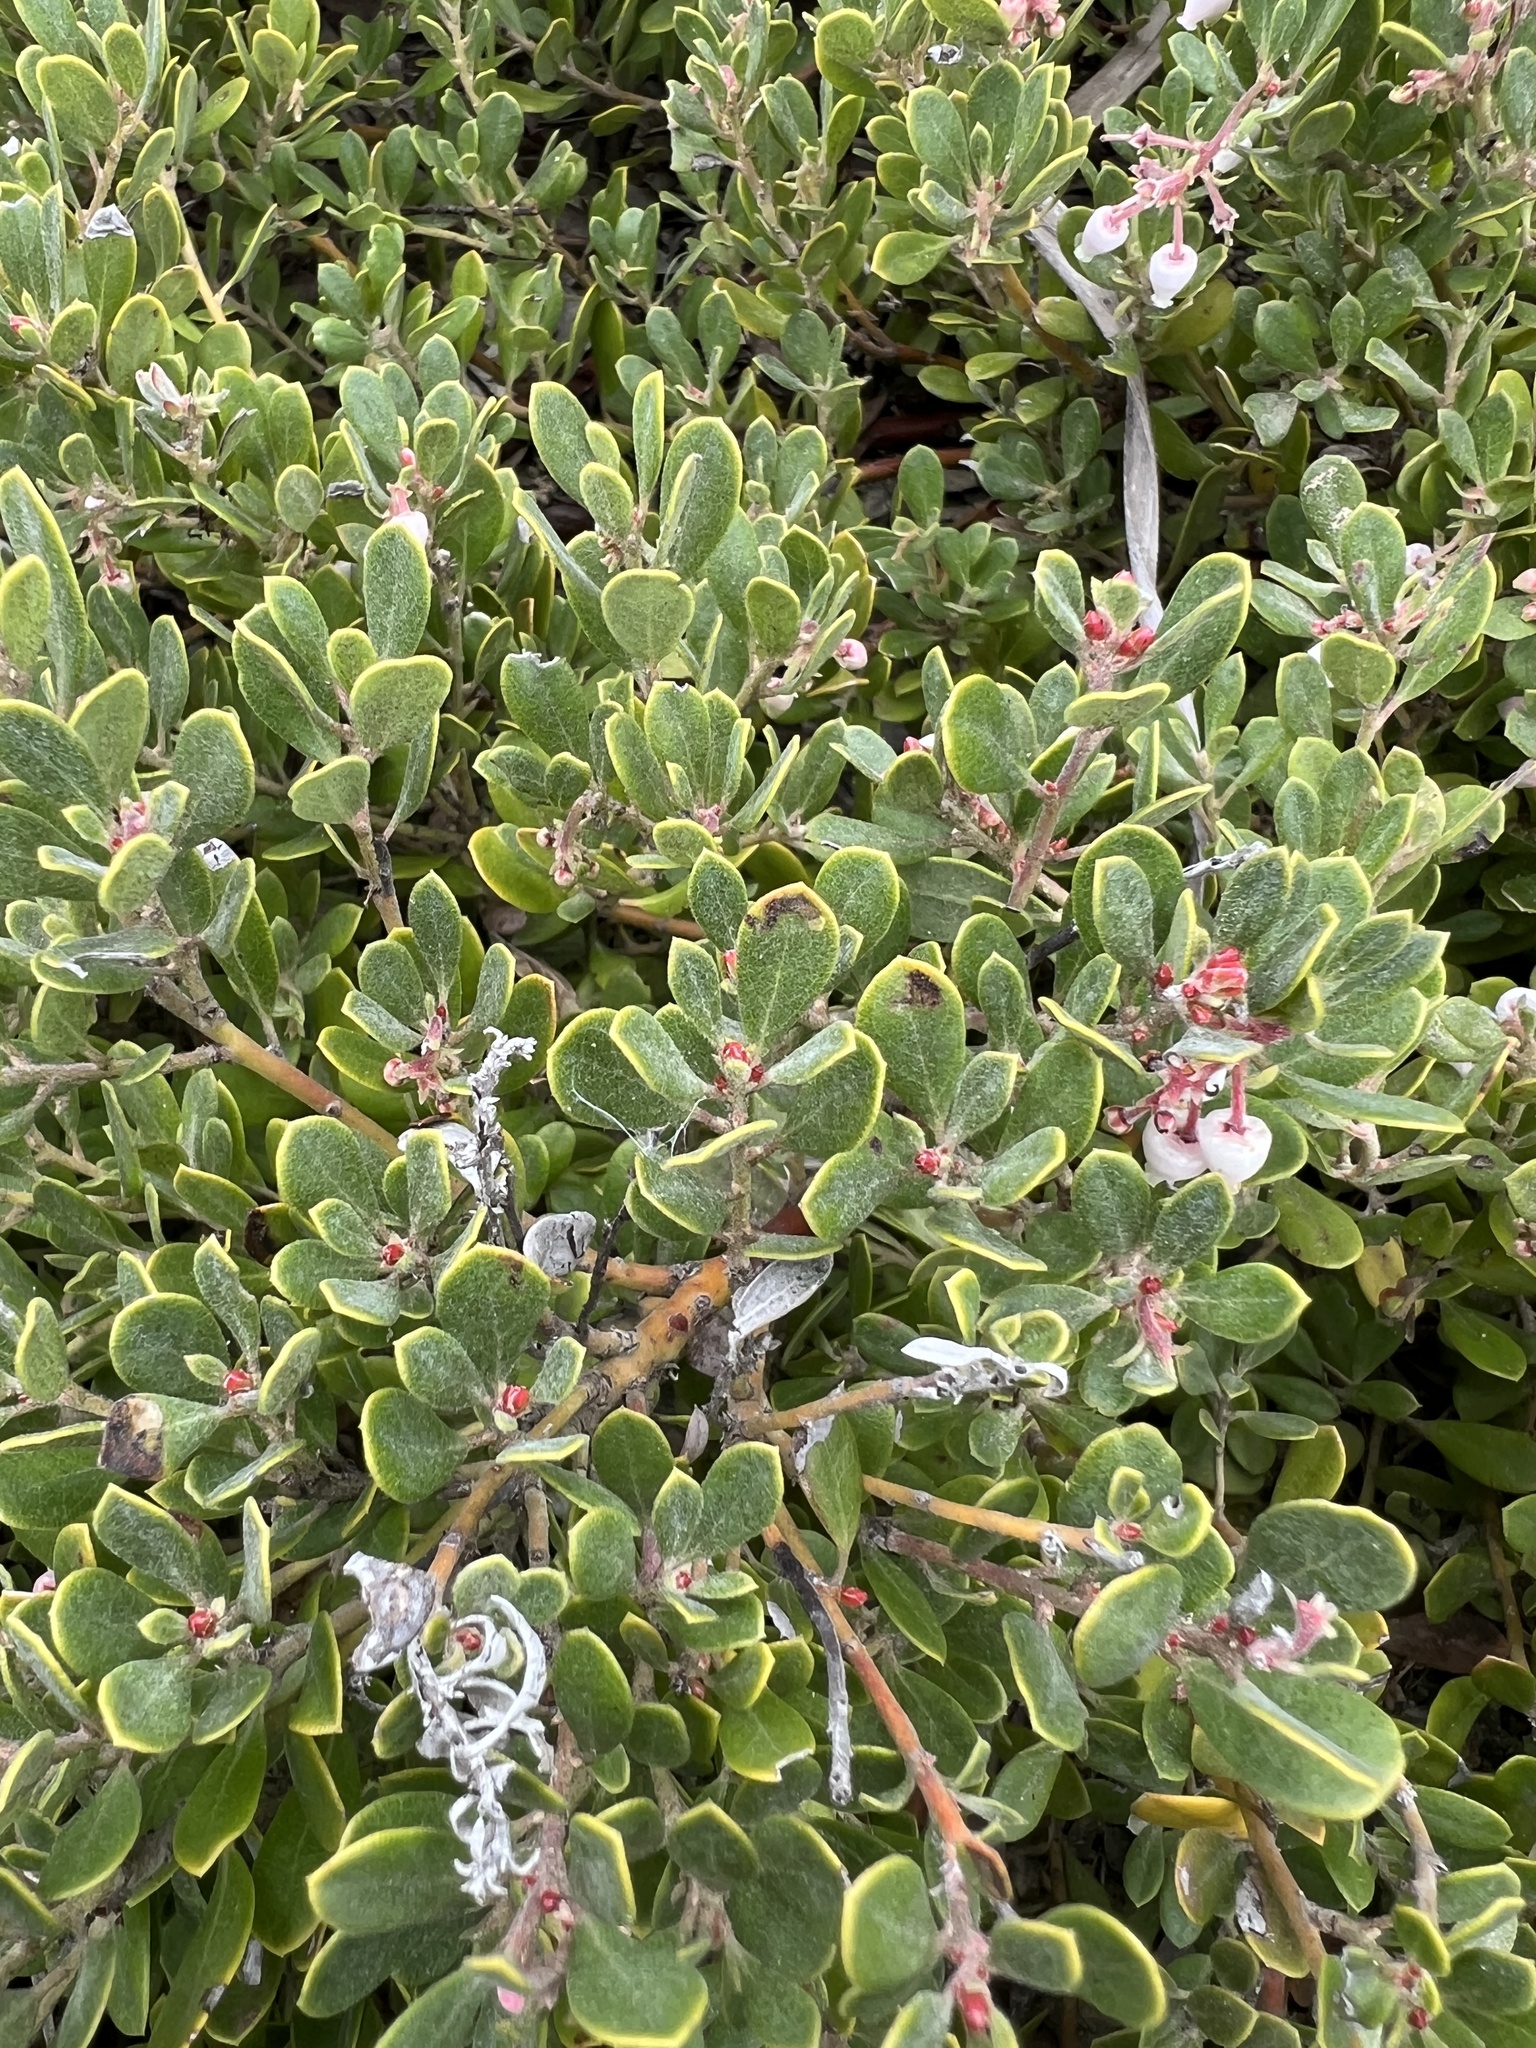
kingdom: Plantae
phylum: Tracheophyta
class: Magnoliopsida
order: Ericales
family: Ericaceae
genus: Arctostaphylos
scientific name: Arctostaphylos pumila
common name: Sandmat manzanita
